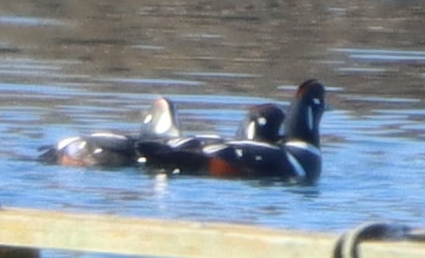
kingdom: Animalia
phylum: Chordata
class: Aves
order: Anseriformes
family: Anatidae
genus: Histrionicus
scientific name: Histrionicus histrionicus
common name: Harlequin duck
